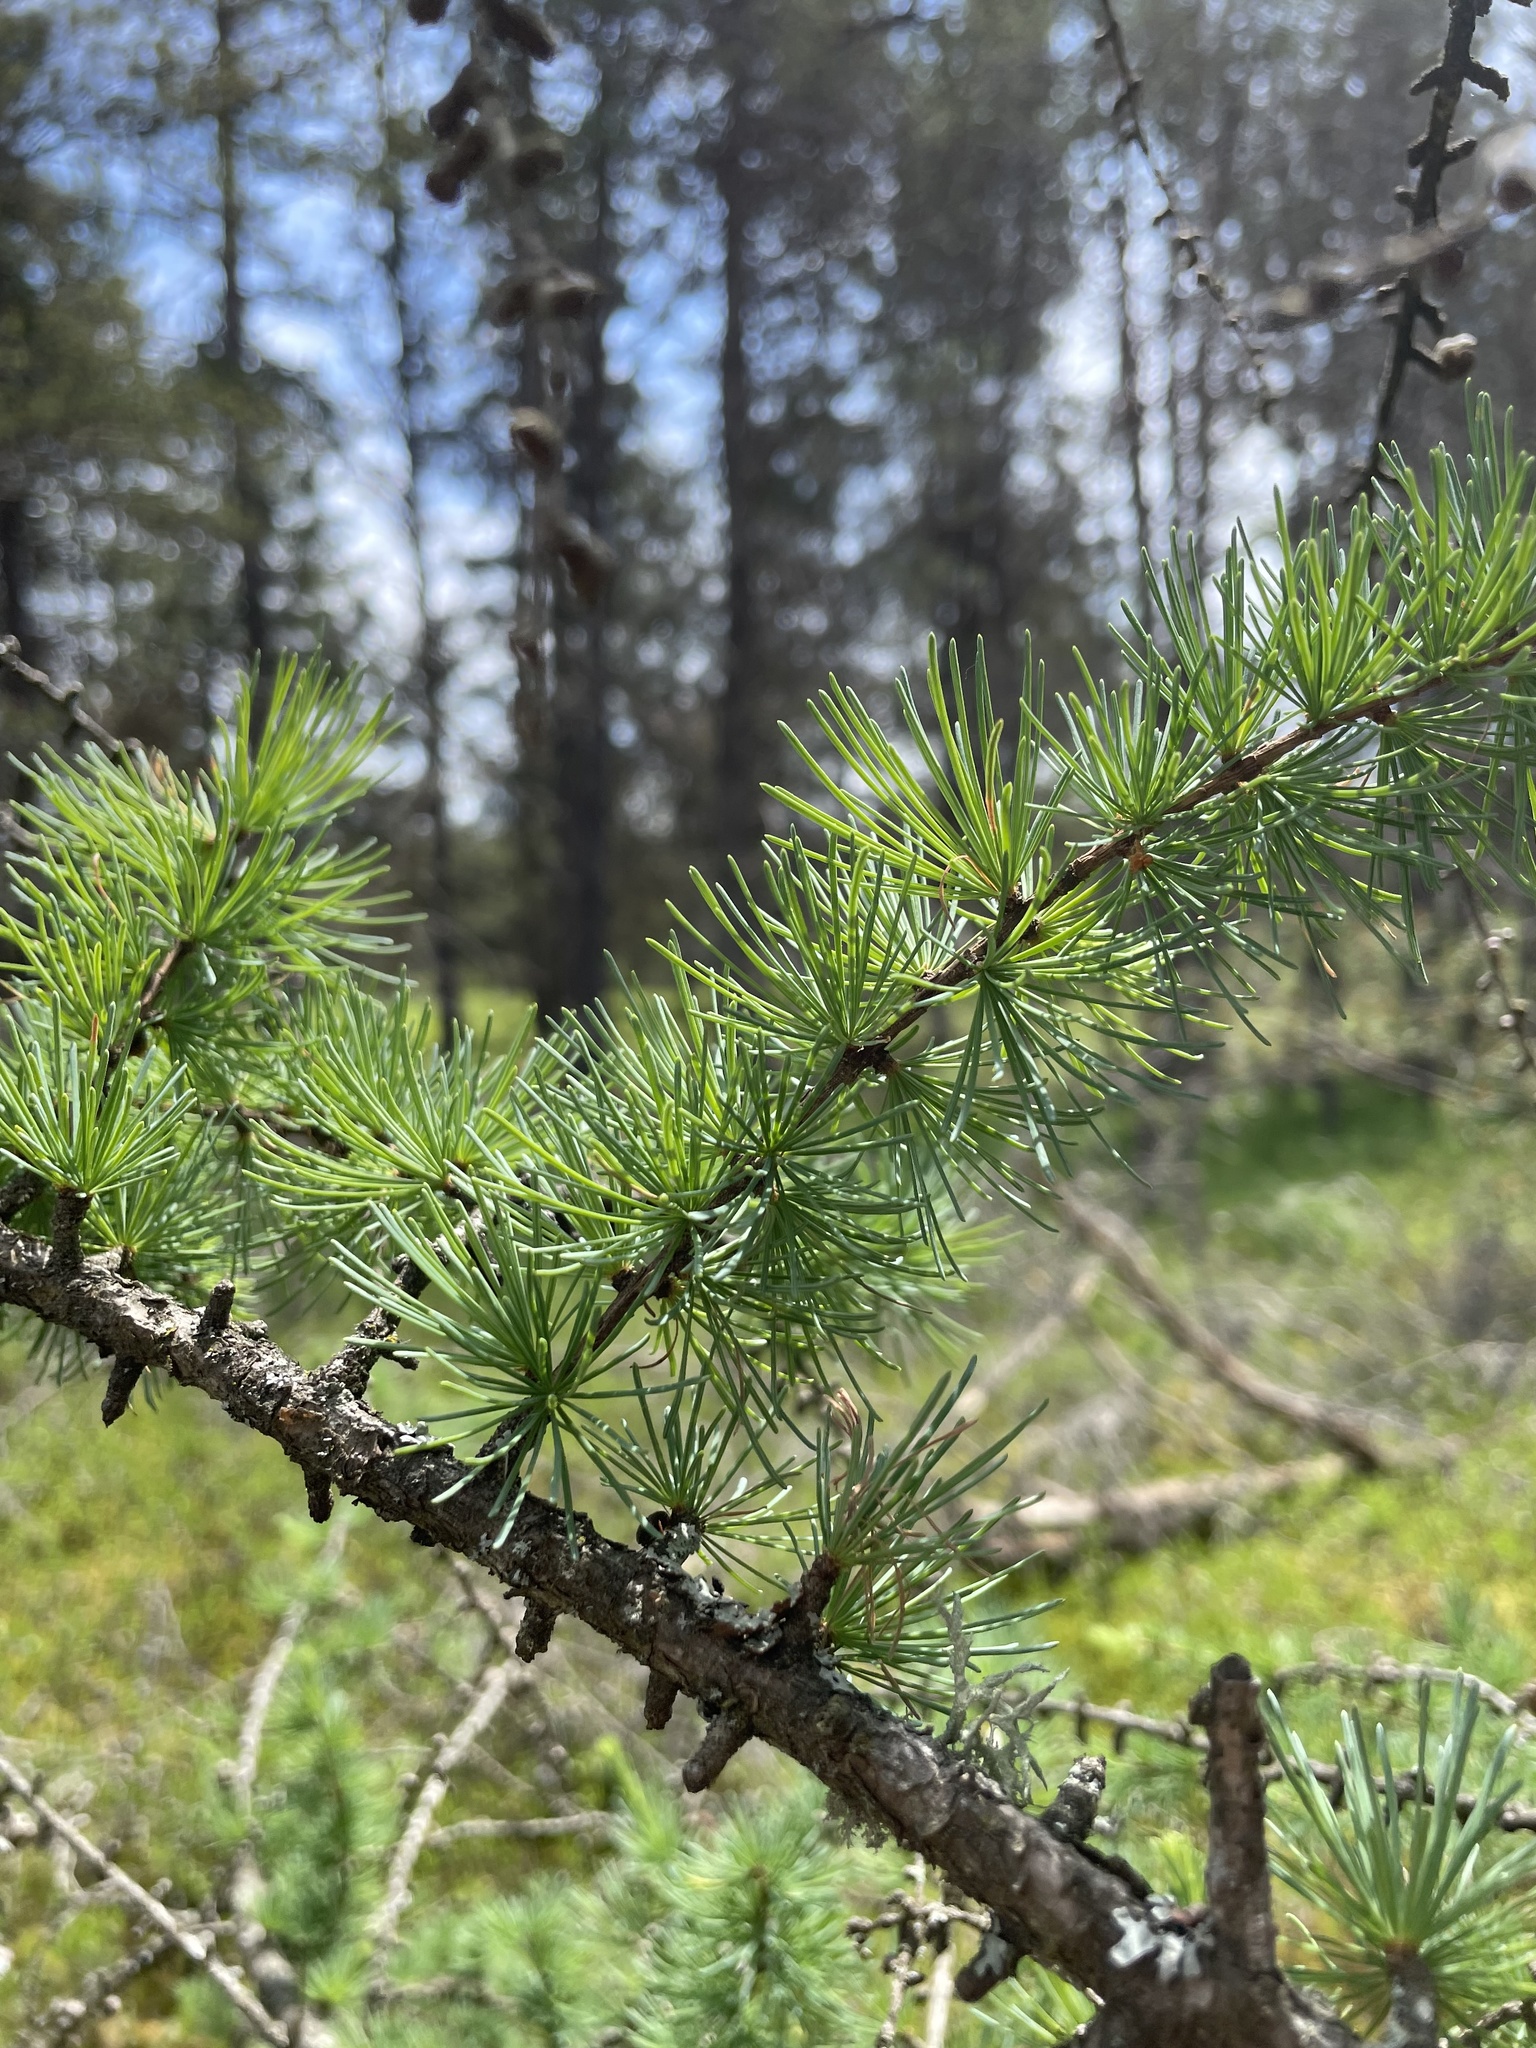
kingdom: Plantae
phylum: Tracheophyta
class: Pinopsida
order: Pinales
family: Pinaceae
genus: Larix
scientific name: Larix laricina
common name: American larch
